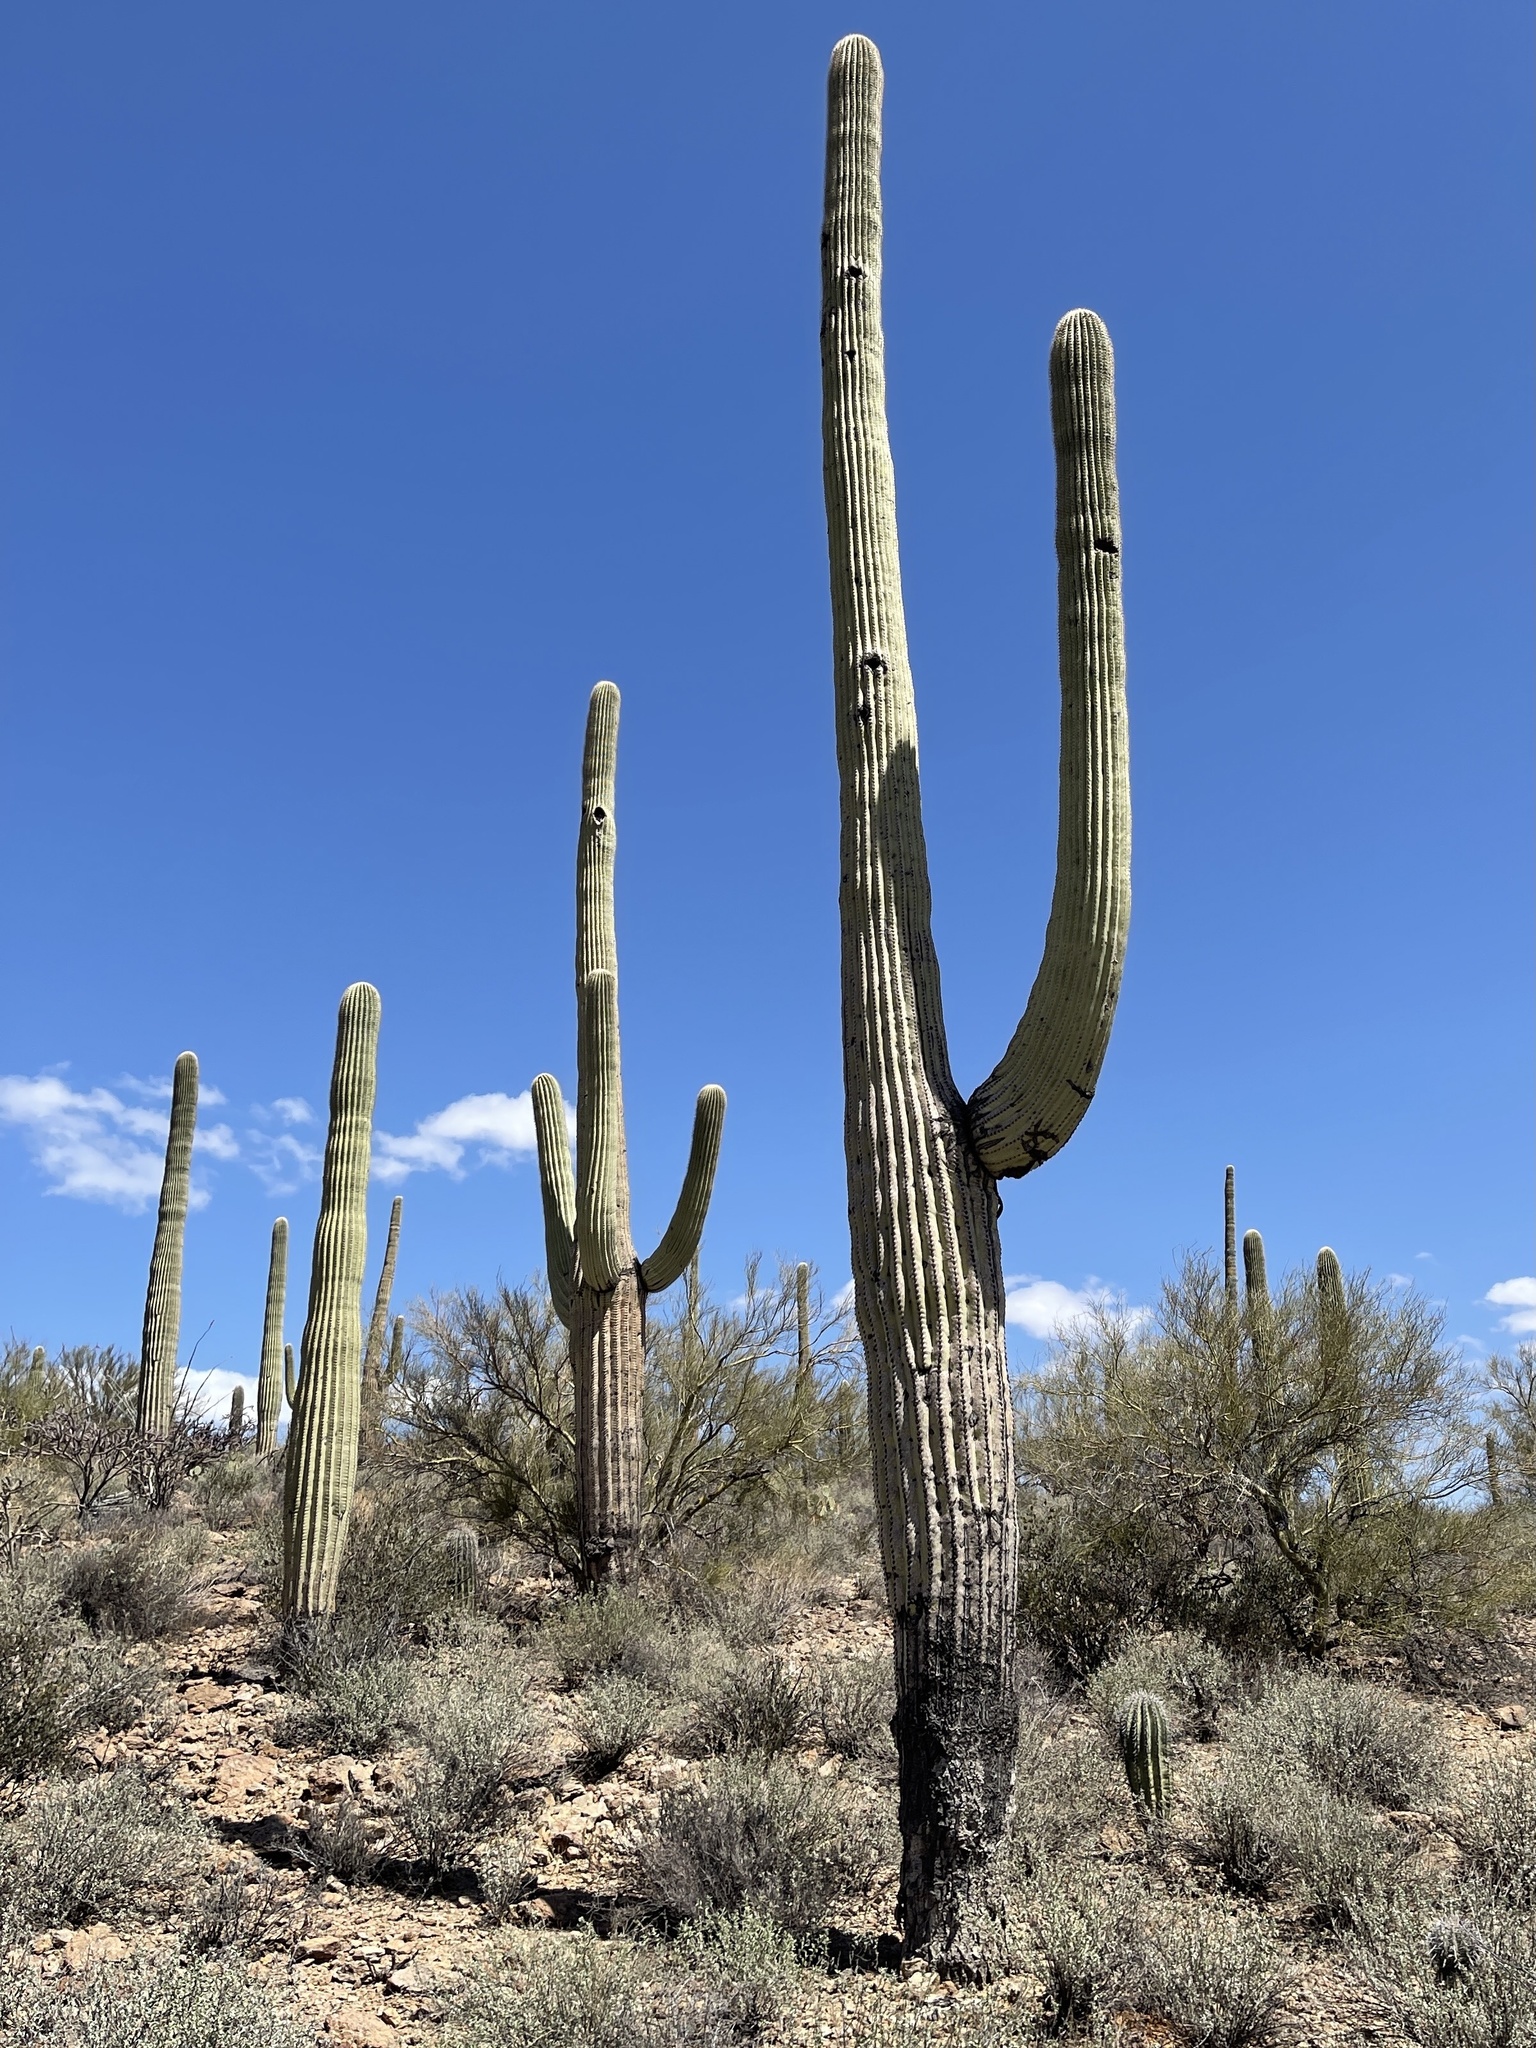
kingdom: Plantae
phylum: Tracheophyta
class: Magnoliopsida
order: Caryophyllales
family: Cactaceae
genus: Carnegiea
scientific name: Carnegiea gigantea
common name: Saguaro
